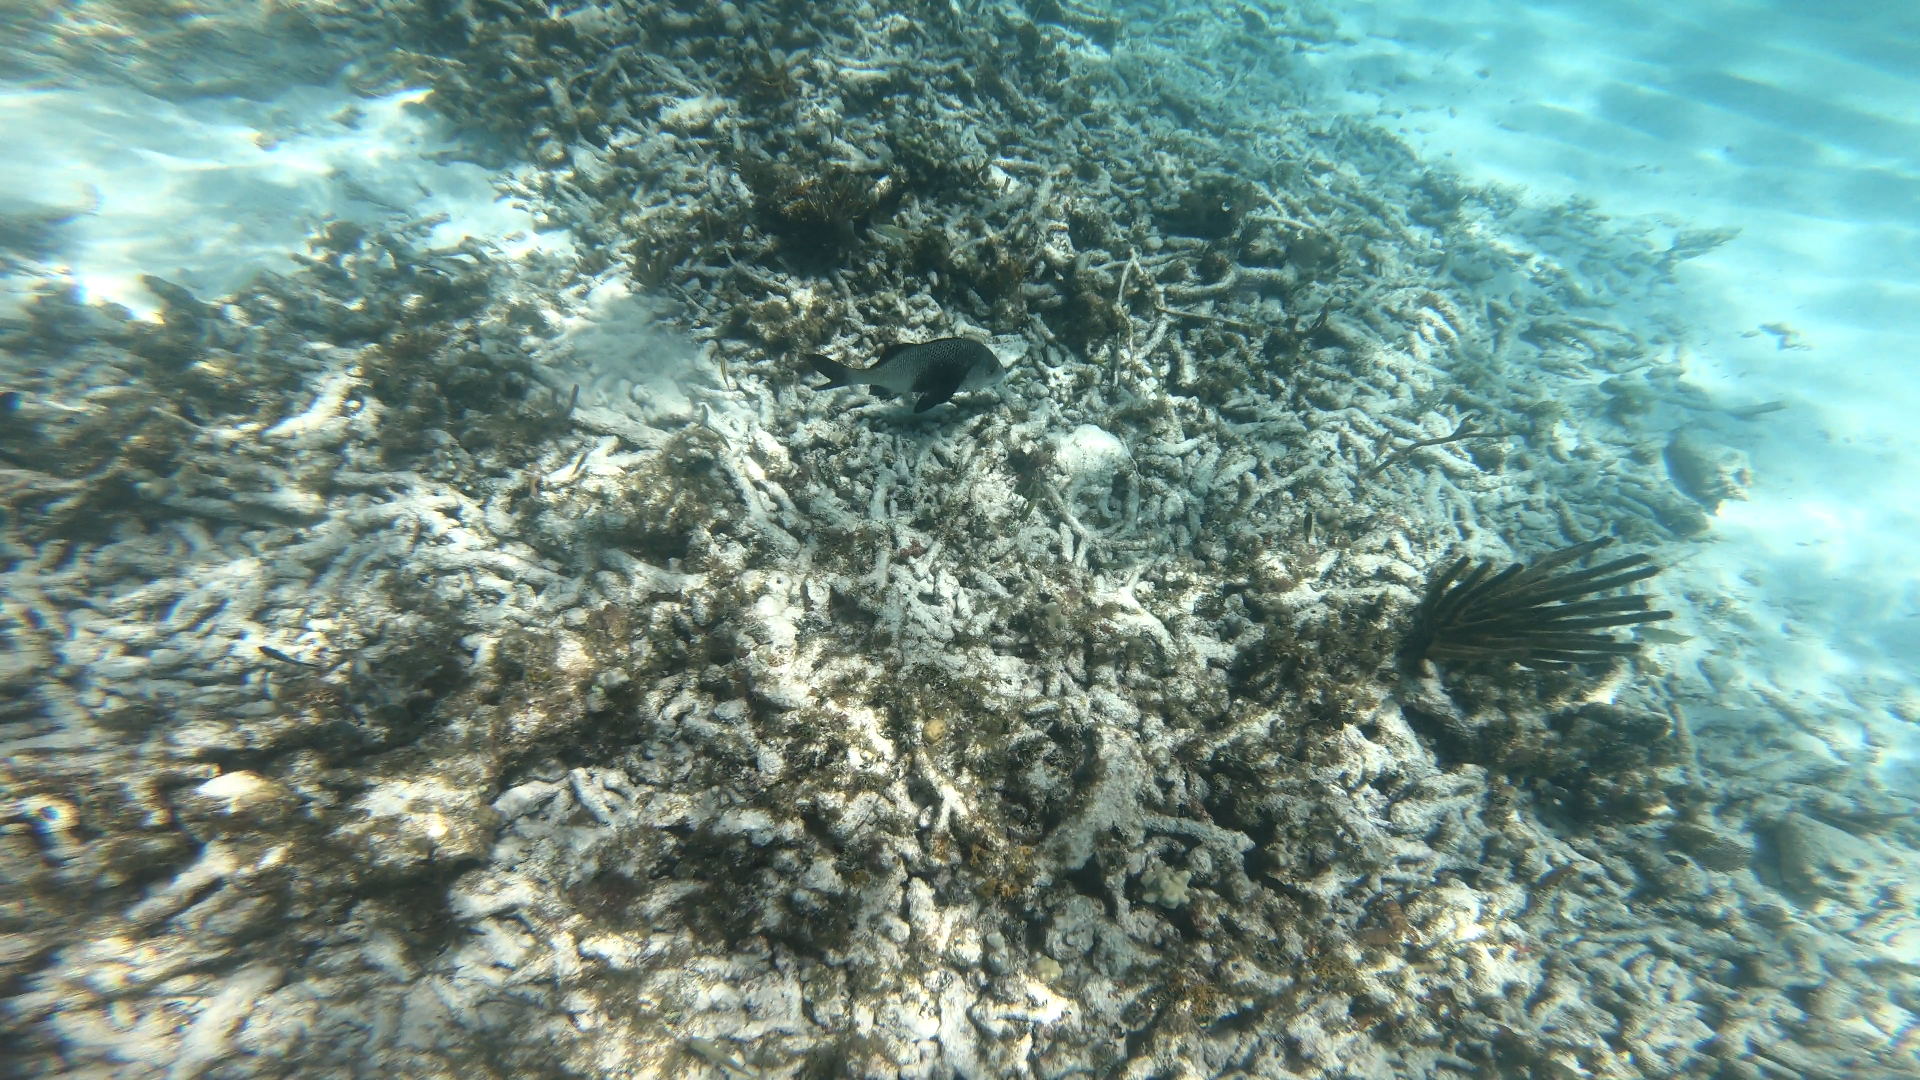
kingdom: Animalia
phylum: Chordata
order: Perciformes
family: Haemulidae
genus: Anisotremus
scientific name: Anisotremus surinamensis
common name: Black margate
